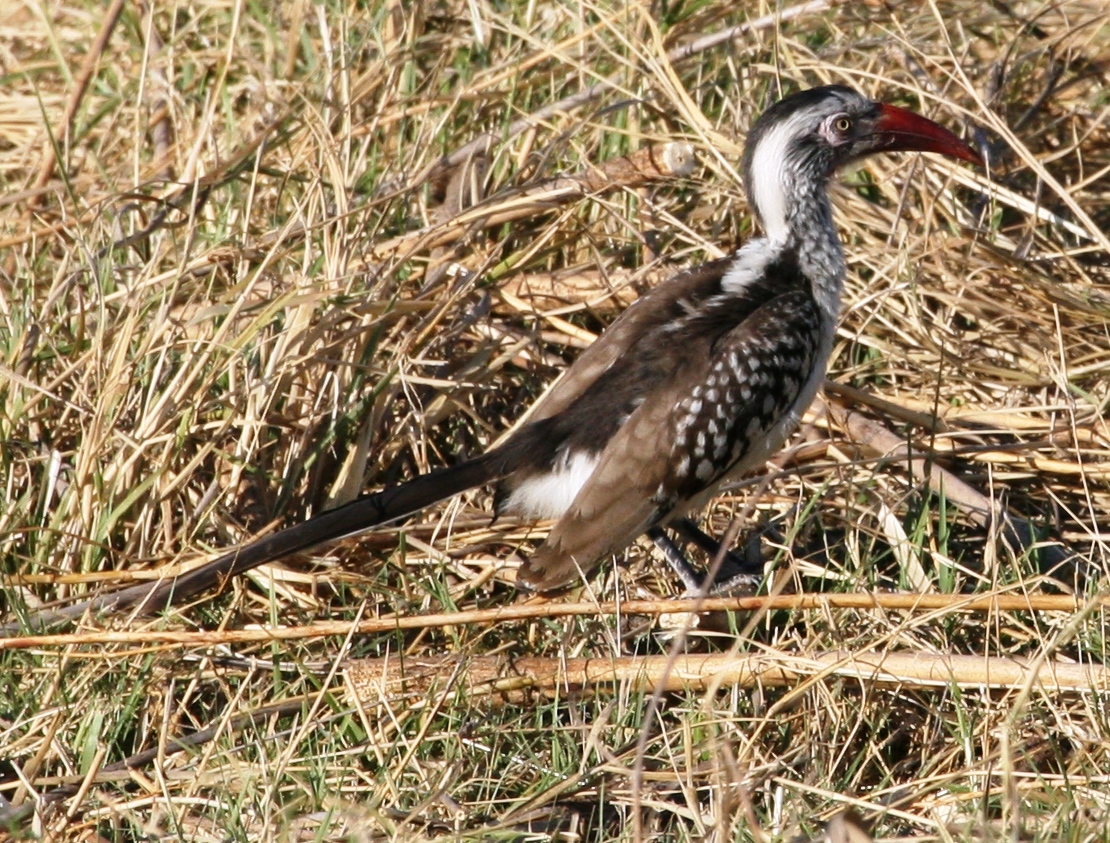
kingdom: Animalia
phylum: Chordata
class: Aves
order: Bucerotiformes
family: Bucerotidae
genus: Tockus
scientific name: Tockus rufirostris
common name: Southern red-billed hornbill
